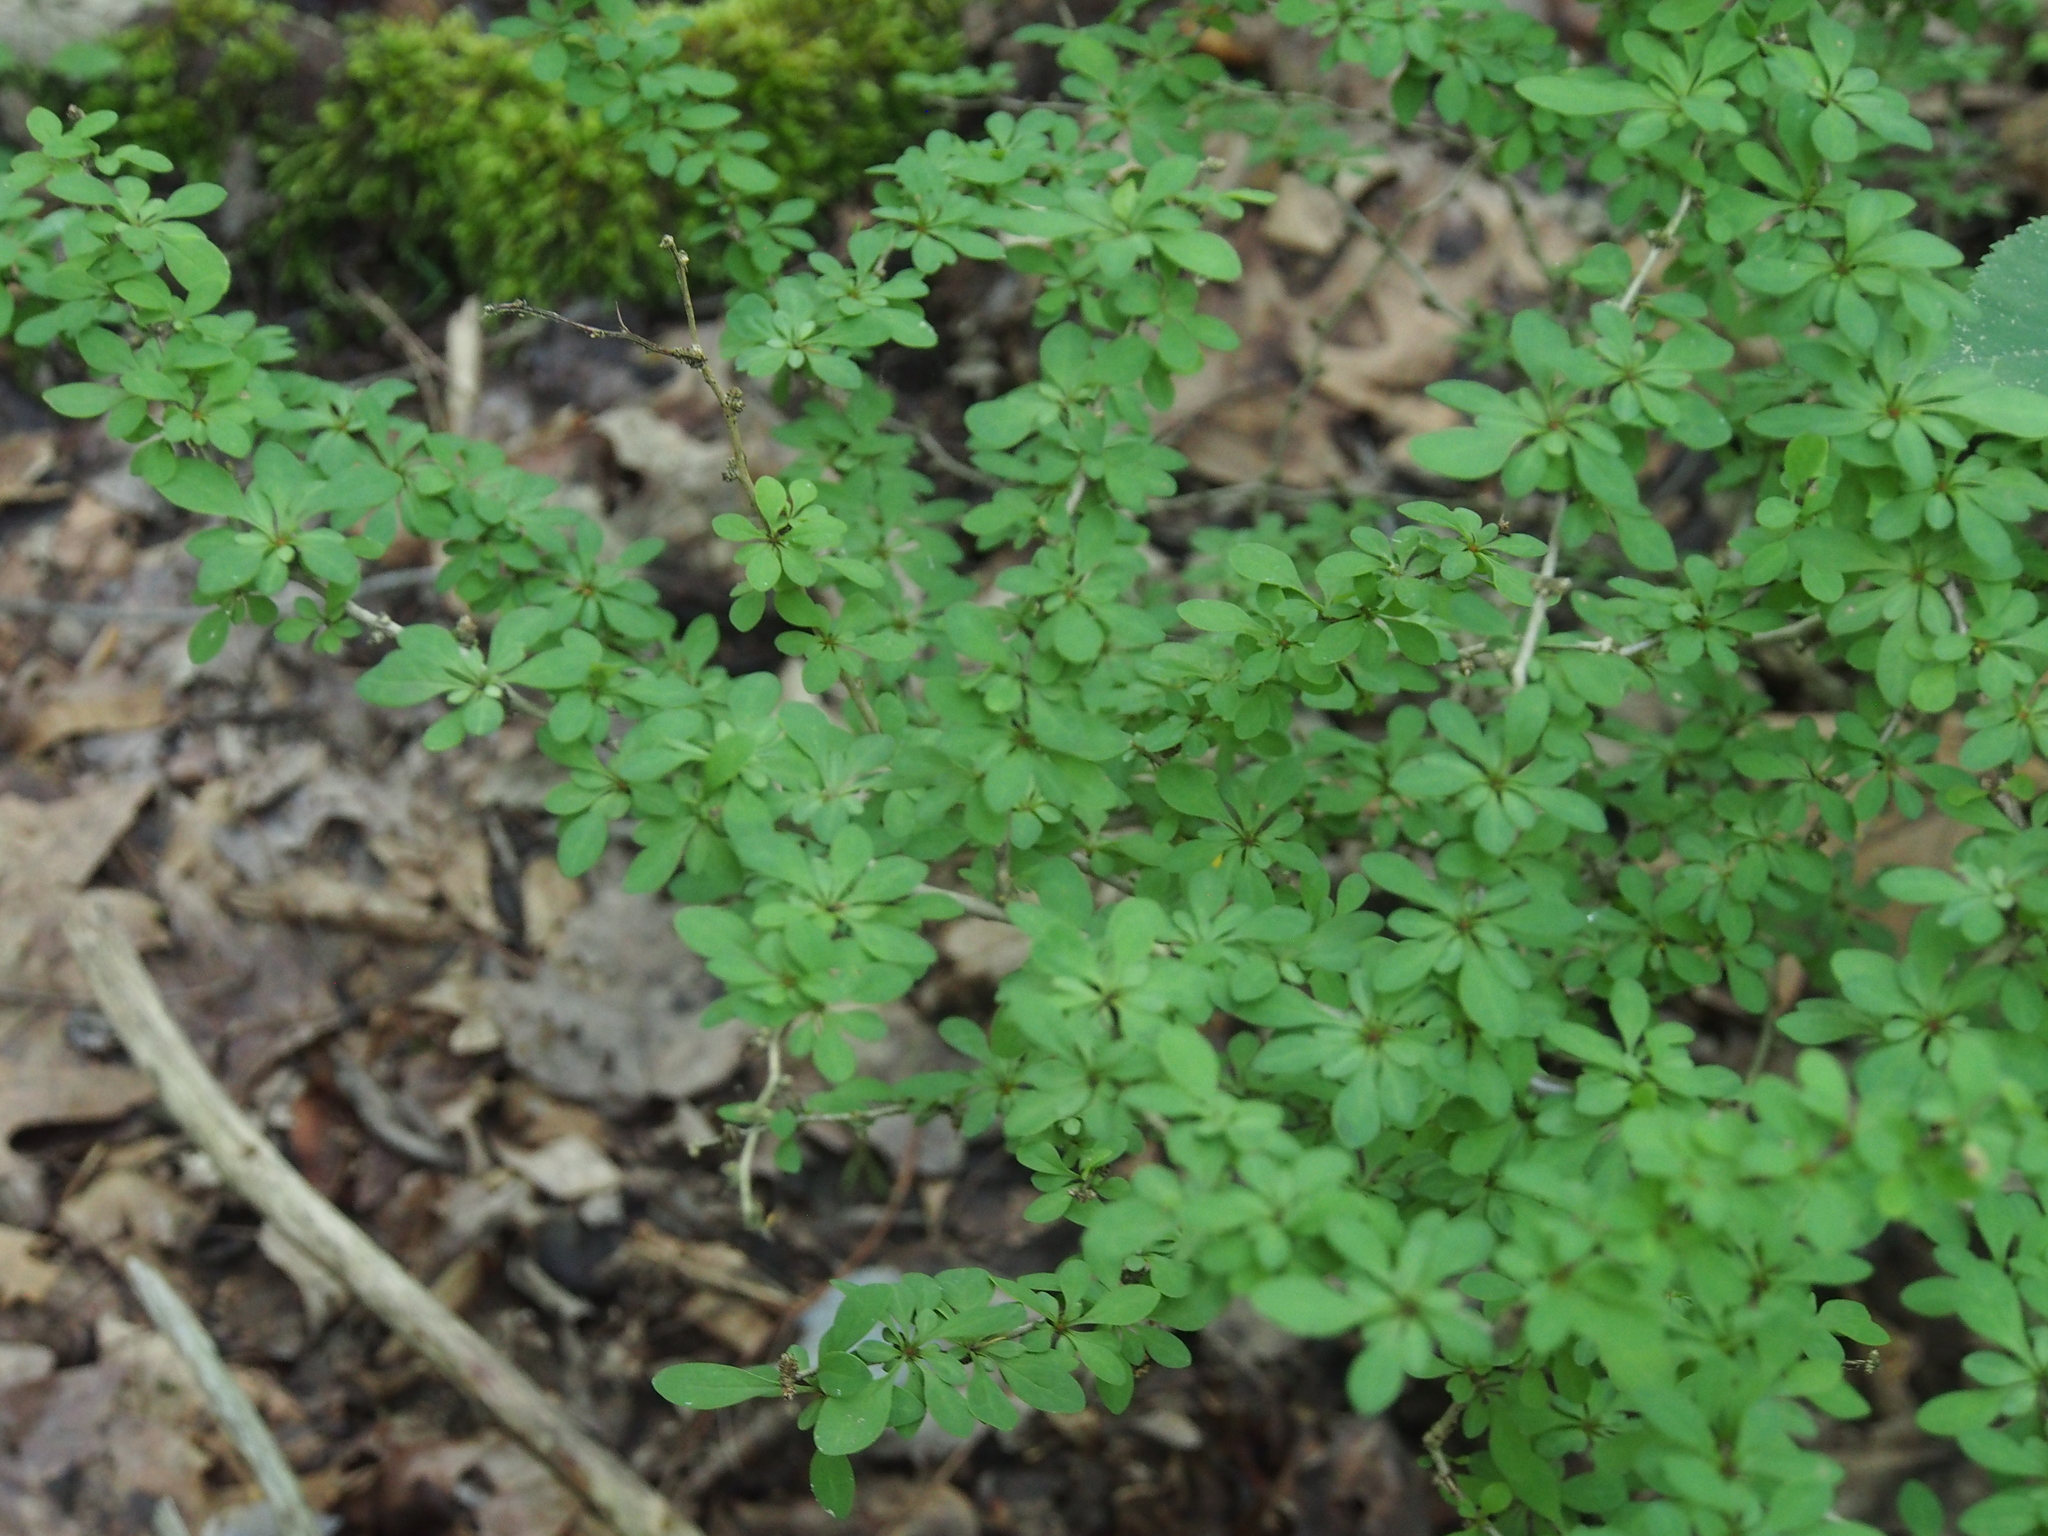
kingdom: Plantae
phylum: Tracheophyta
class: Magnoliopsida
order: Ranunculales
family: Berberidaceae
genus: Berberis
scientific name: Berberis thunbergii
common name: Japanese barberry
